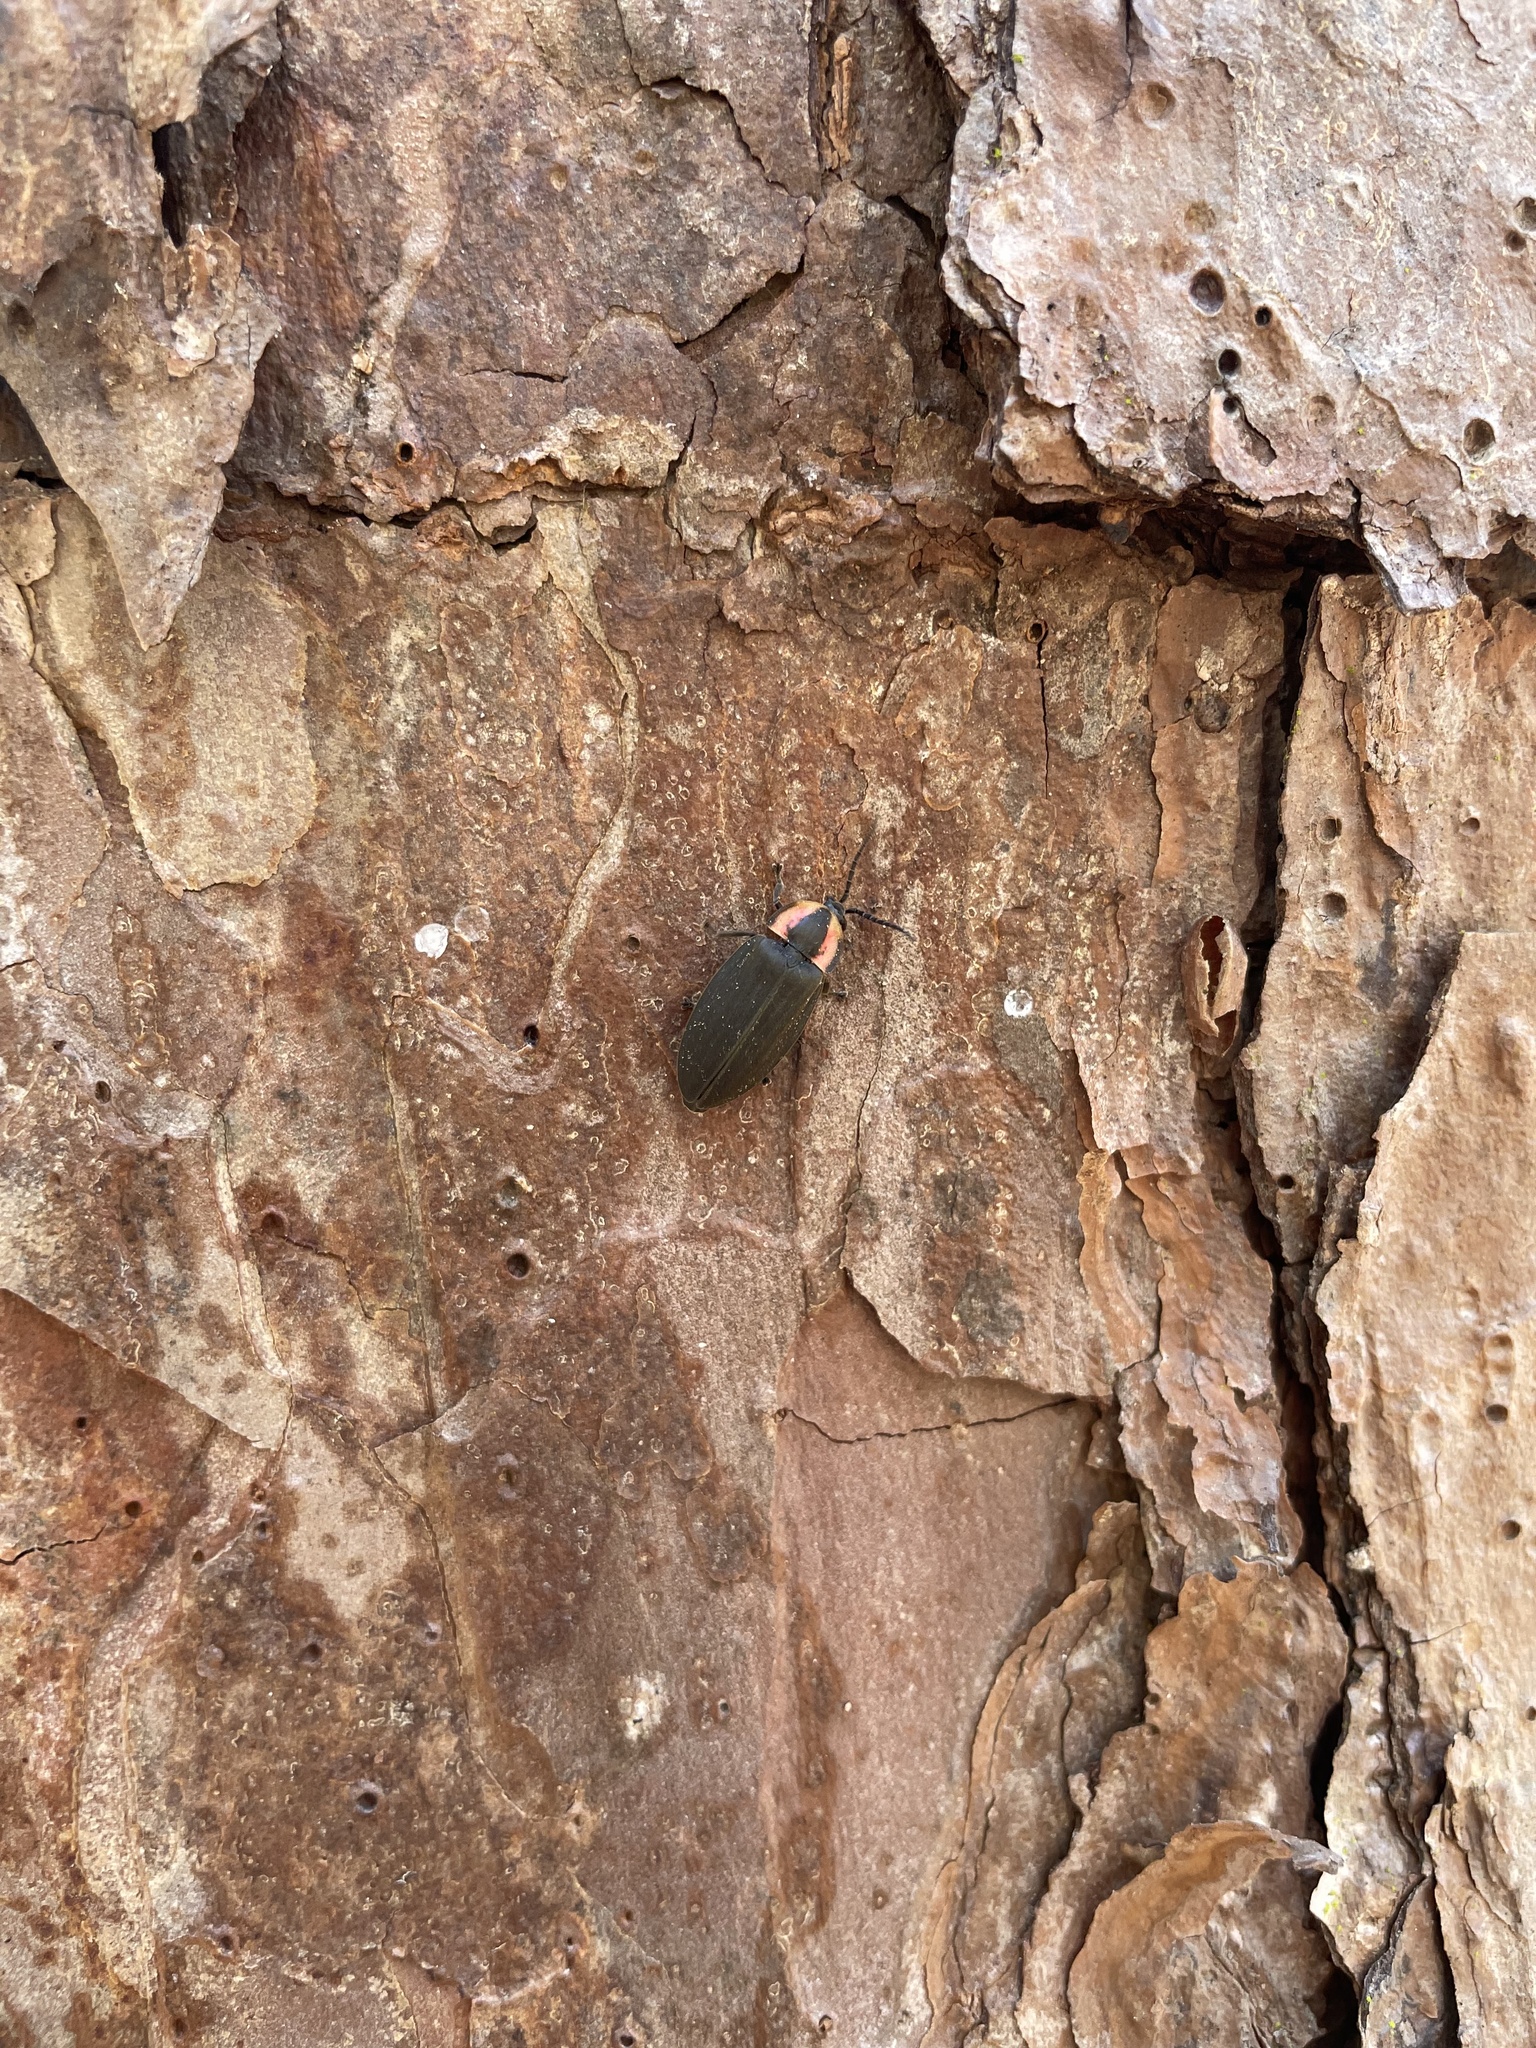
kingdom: Animalia
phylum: Arthropoda
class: Insecta
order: Coleoptera
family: Lampyridae
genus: Photinus
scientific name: Photinus corrusca
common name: Winter firefly
